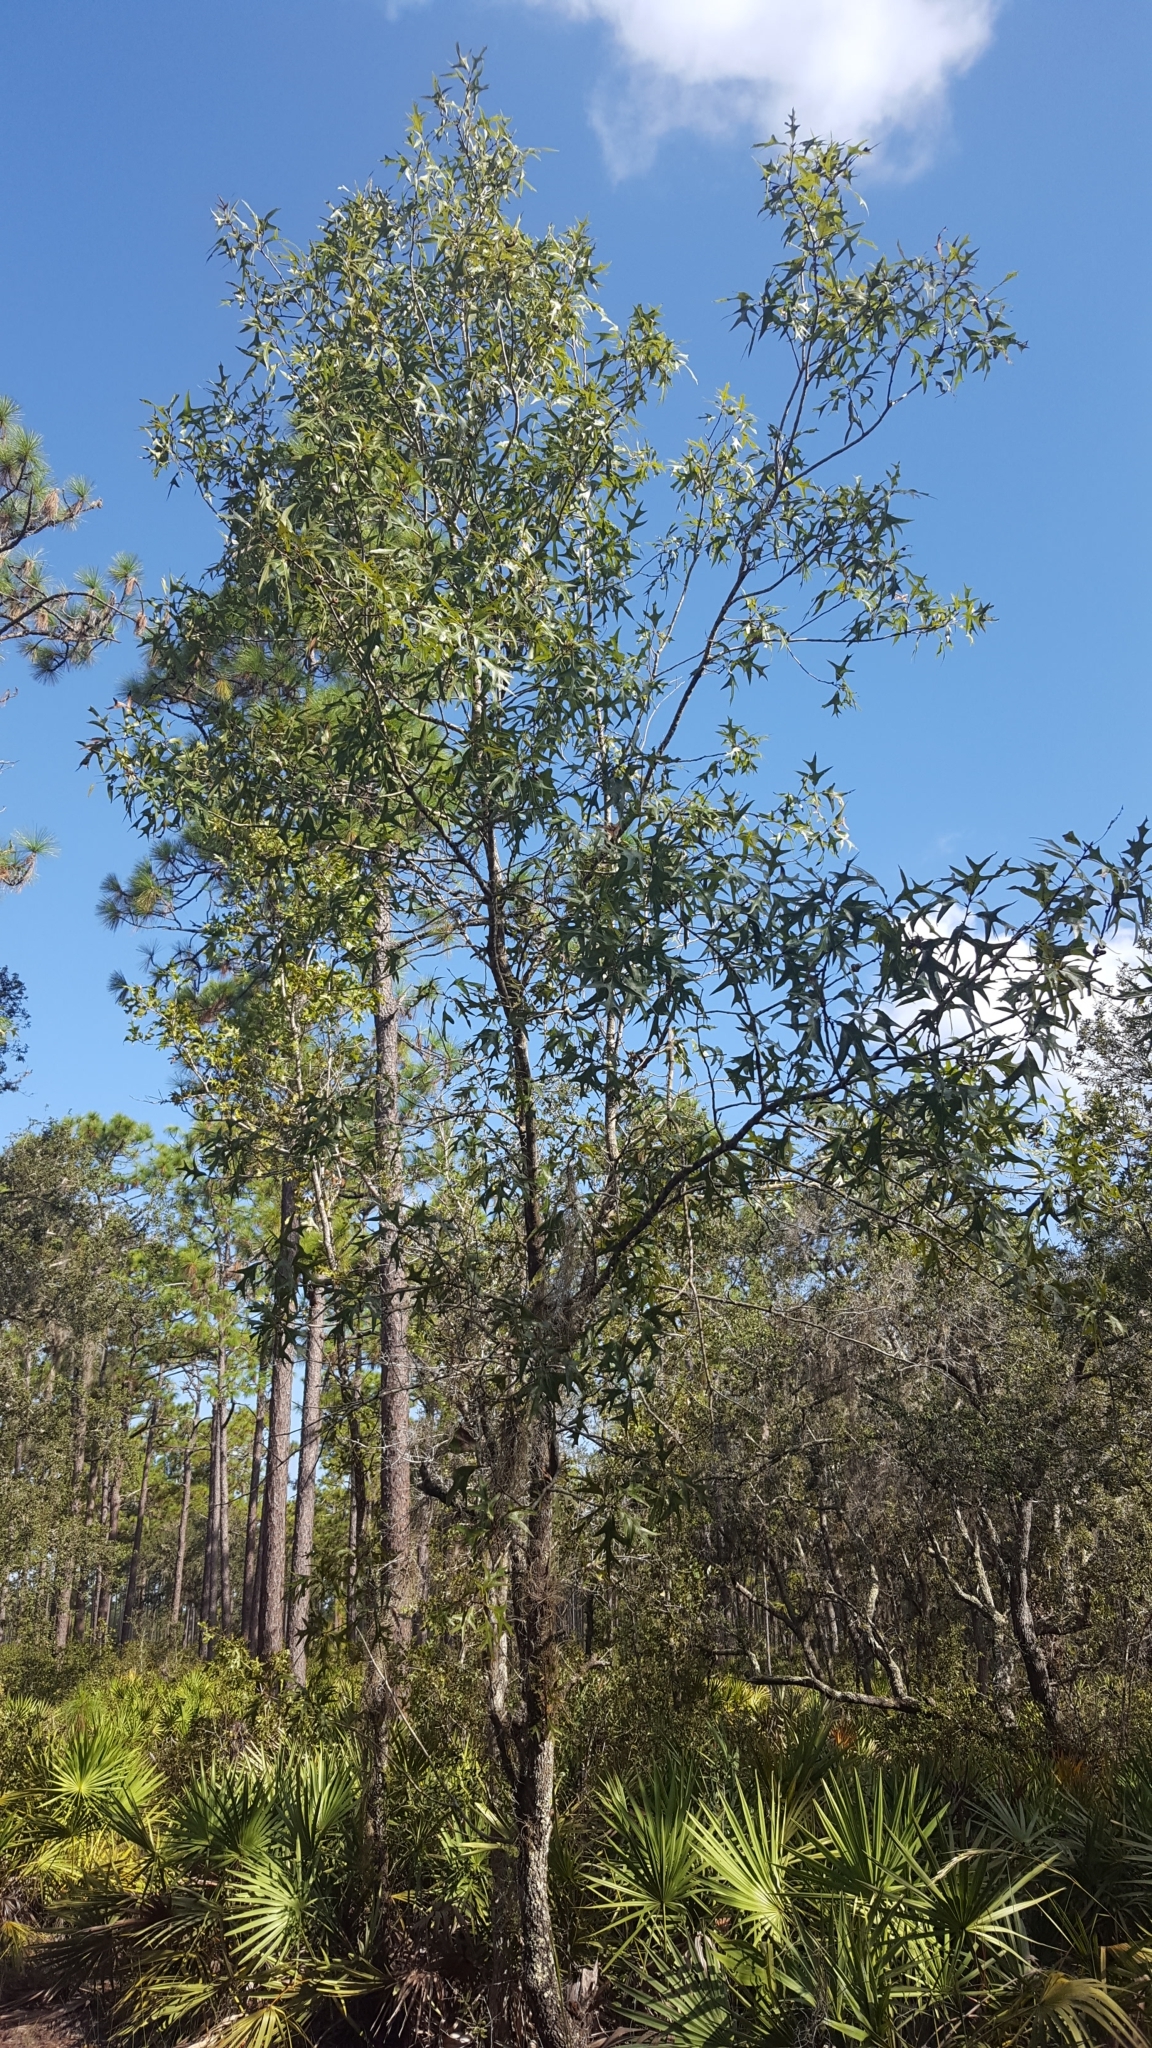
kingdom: Plantae
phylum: Tracheophyta
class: Magnoliopsida
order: Fagales
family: Fagaceae
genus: Quercus
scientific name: Quercus laevis
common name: Turkey oak
